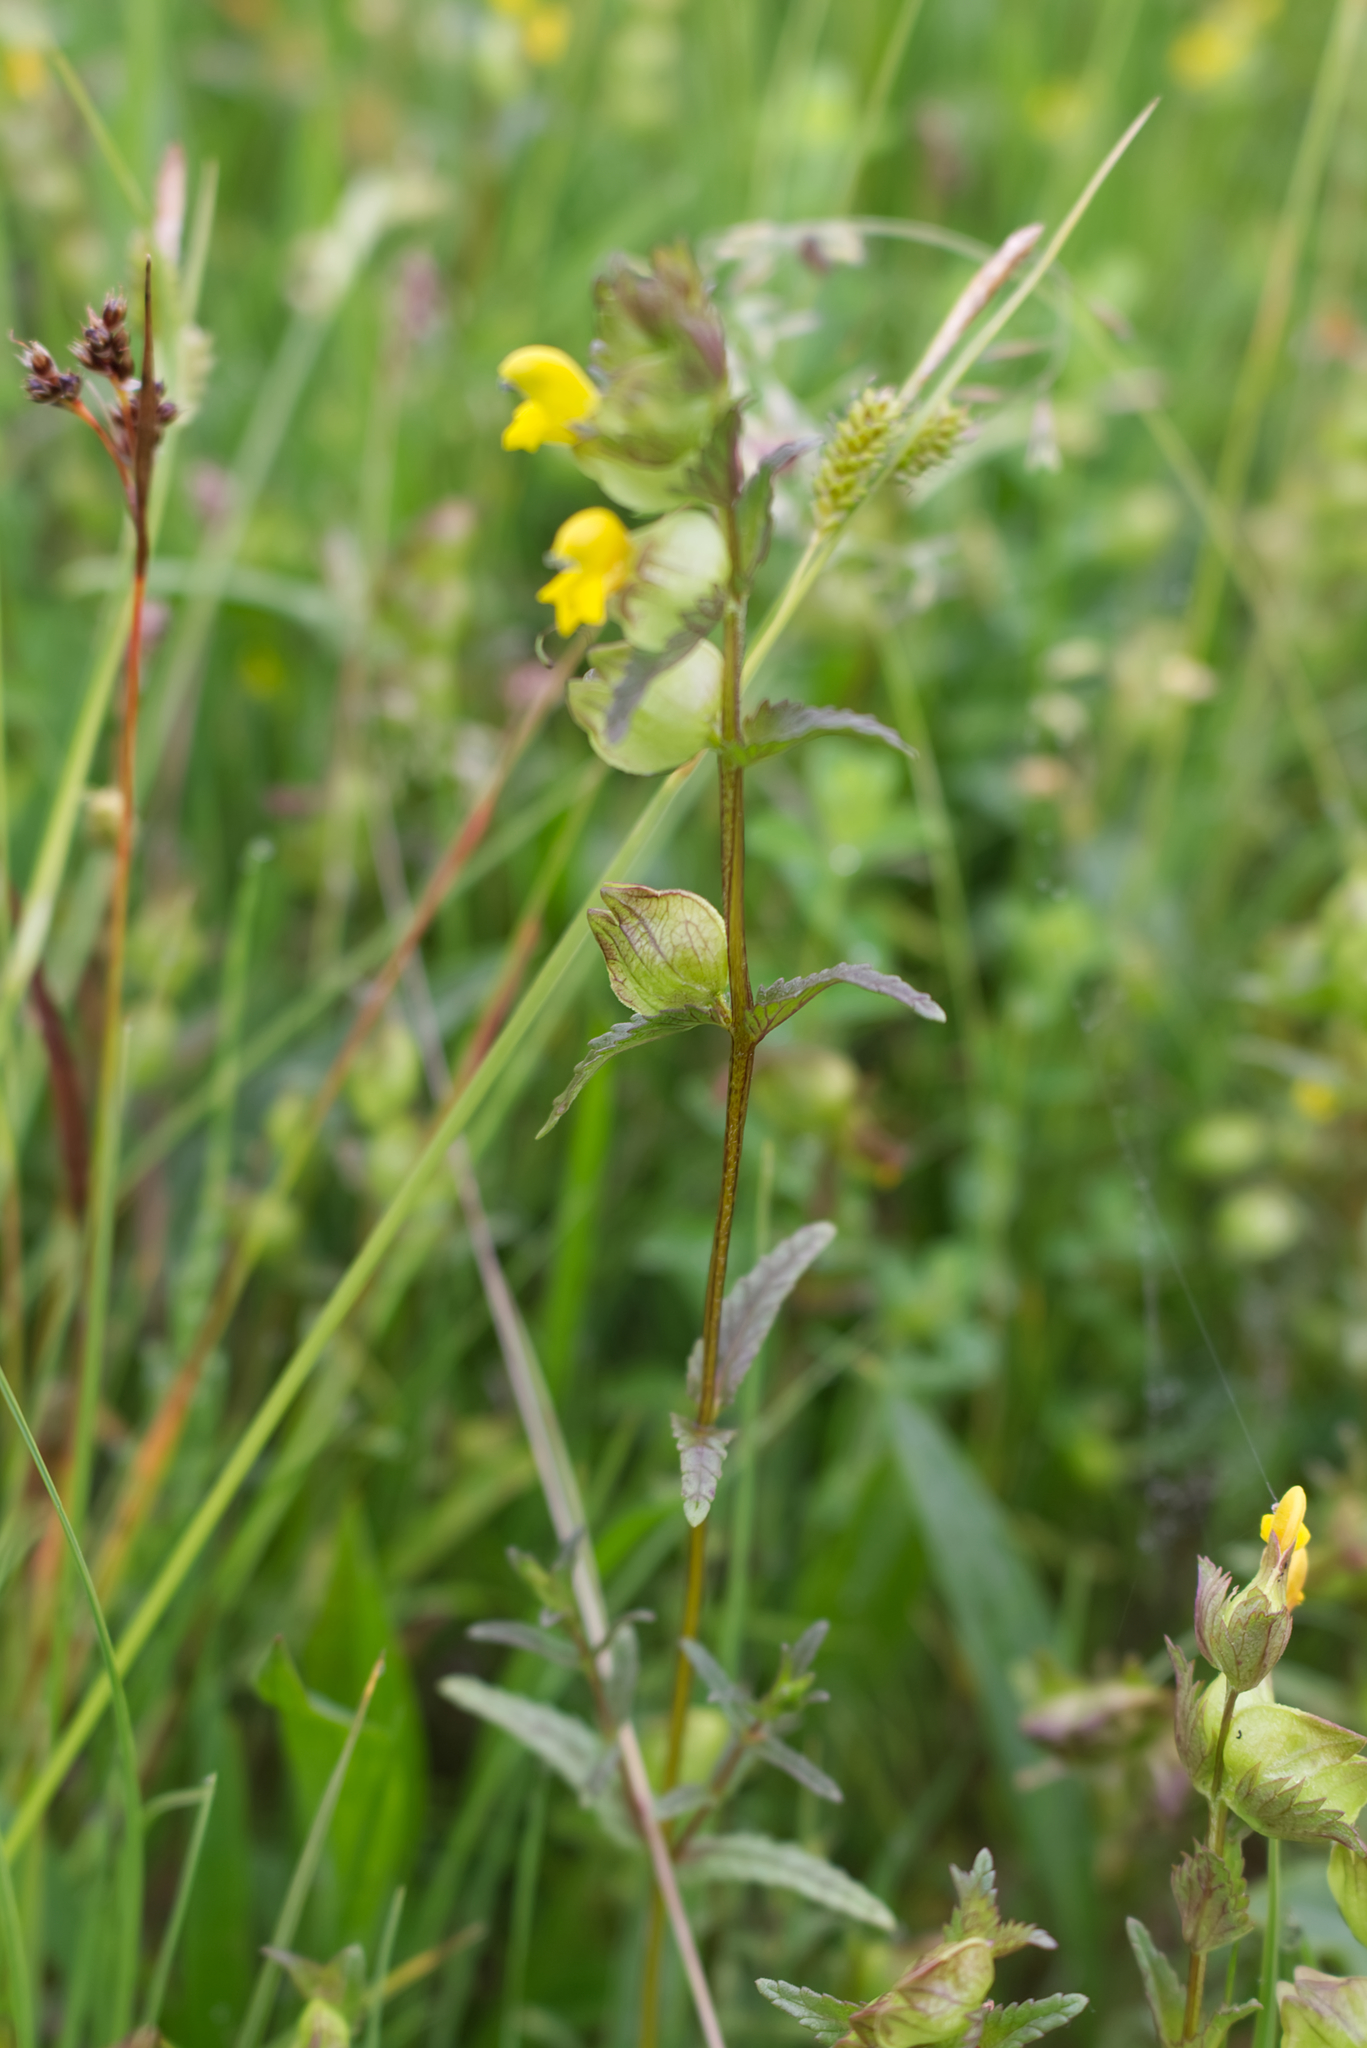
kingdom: Plantae
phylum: Tracheophyta
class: Magnoliopsida
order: Lamiales
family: Orobanchaceae
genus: Rhinanthus
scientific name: Rhinanthus minor
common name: Yellow-rattle
